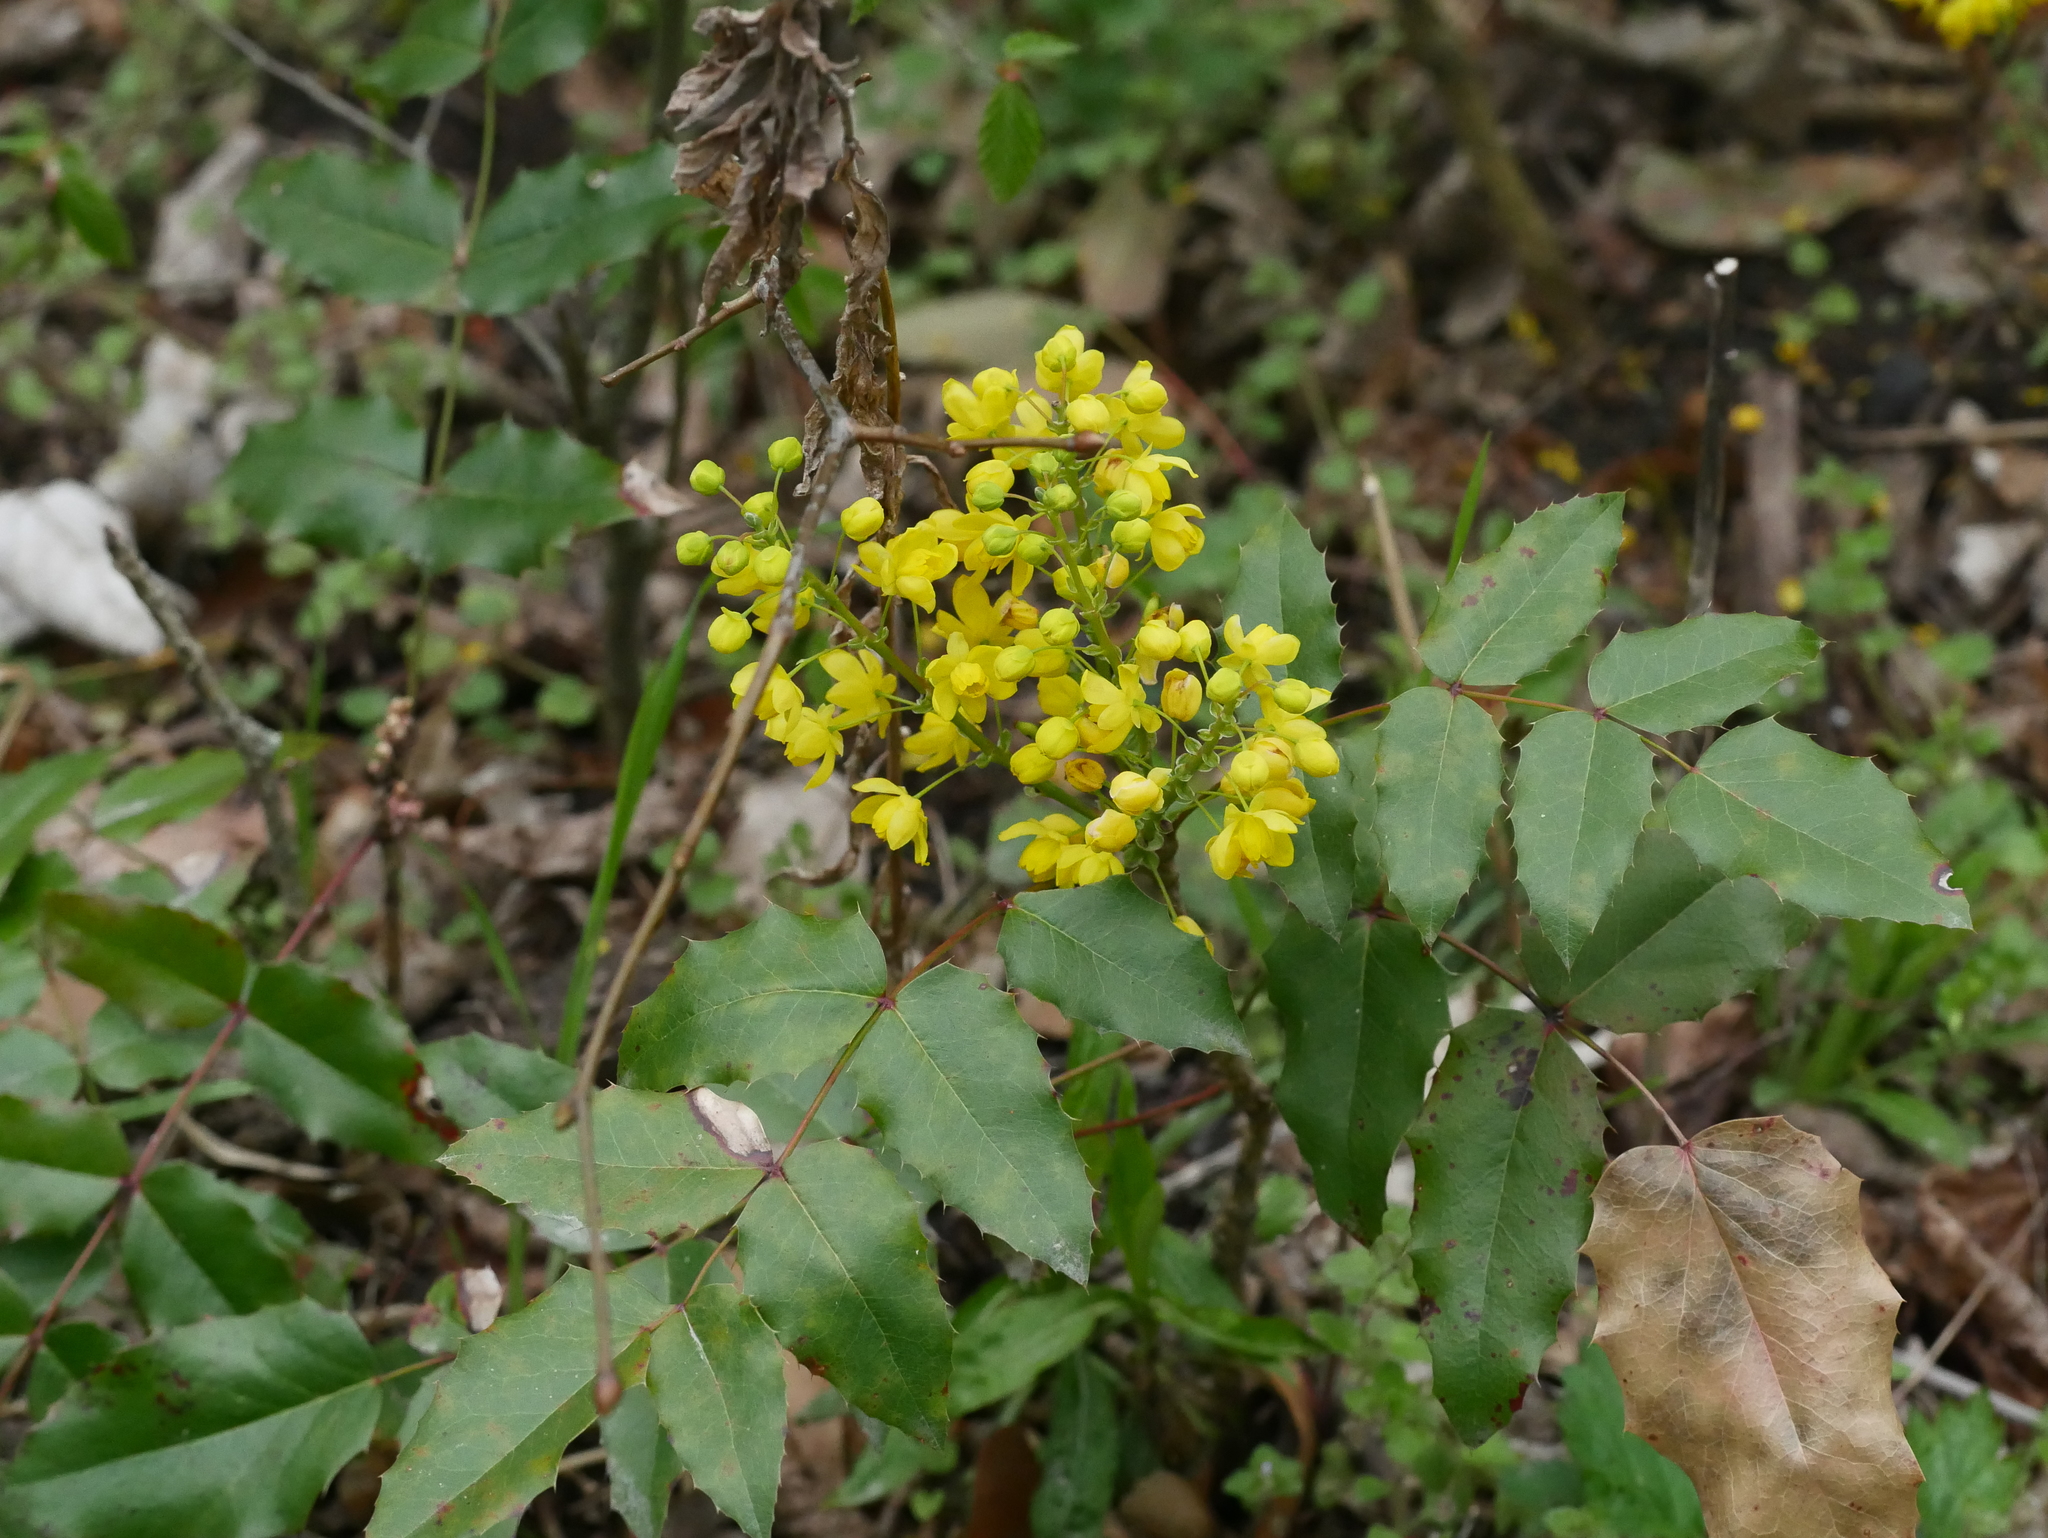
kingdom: Plantae
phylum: Tracheophyta
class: Magnoliopsida
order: Ranunculales
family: Berberidaceae
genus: Mahonia
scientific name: Mahonia aquifolium
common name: Oregon-grape
